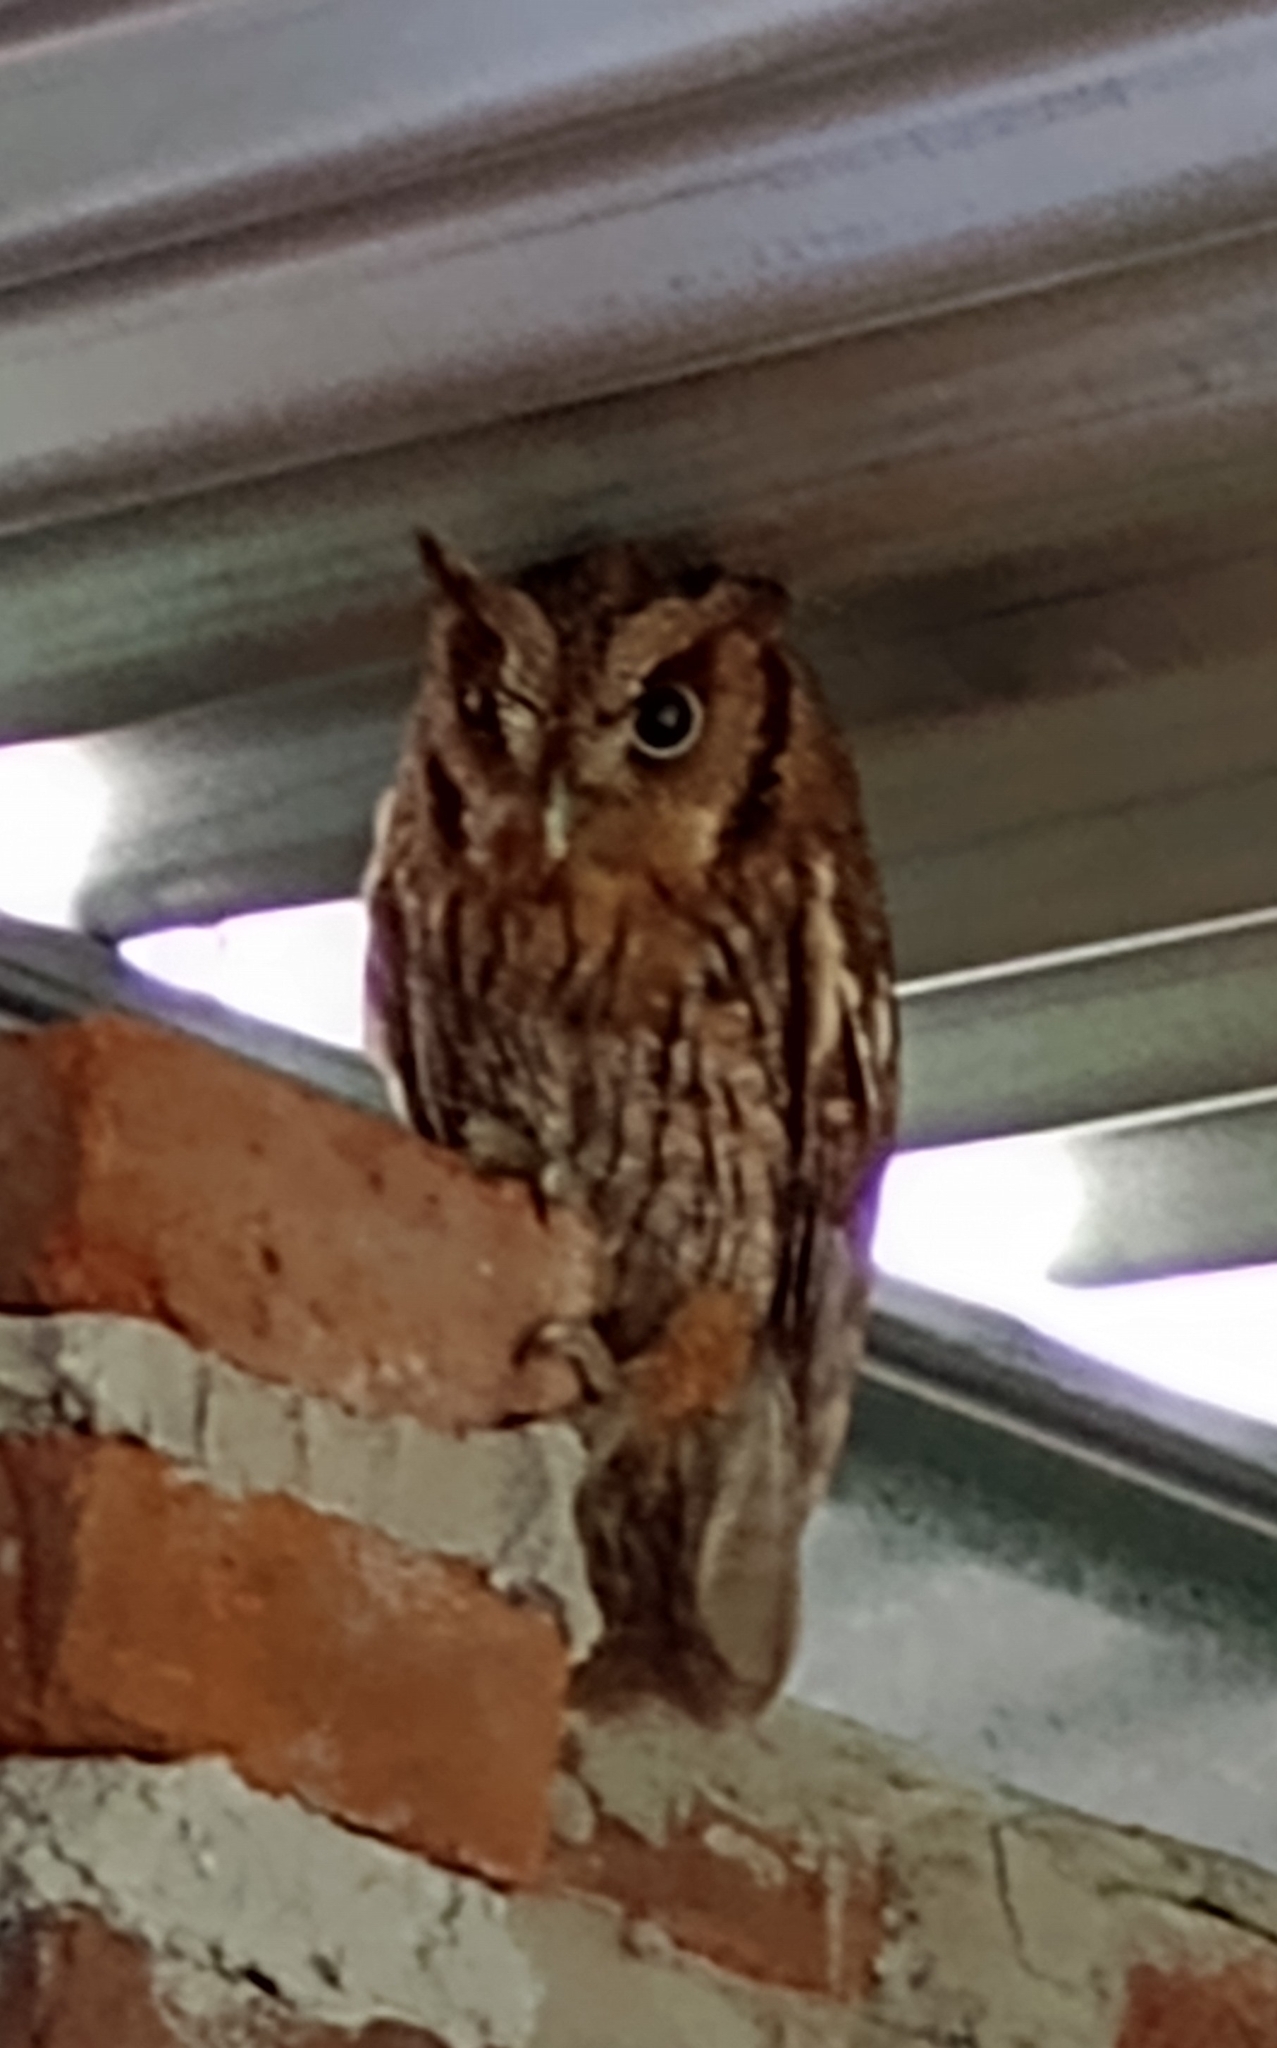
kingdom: Animalia
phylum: Chordata
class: Aves
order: Strigiformes
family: Strigidae
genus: Megascops
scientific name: Megascops choliba
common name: Tropical screech-owl
